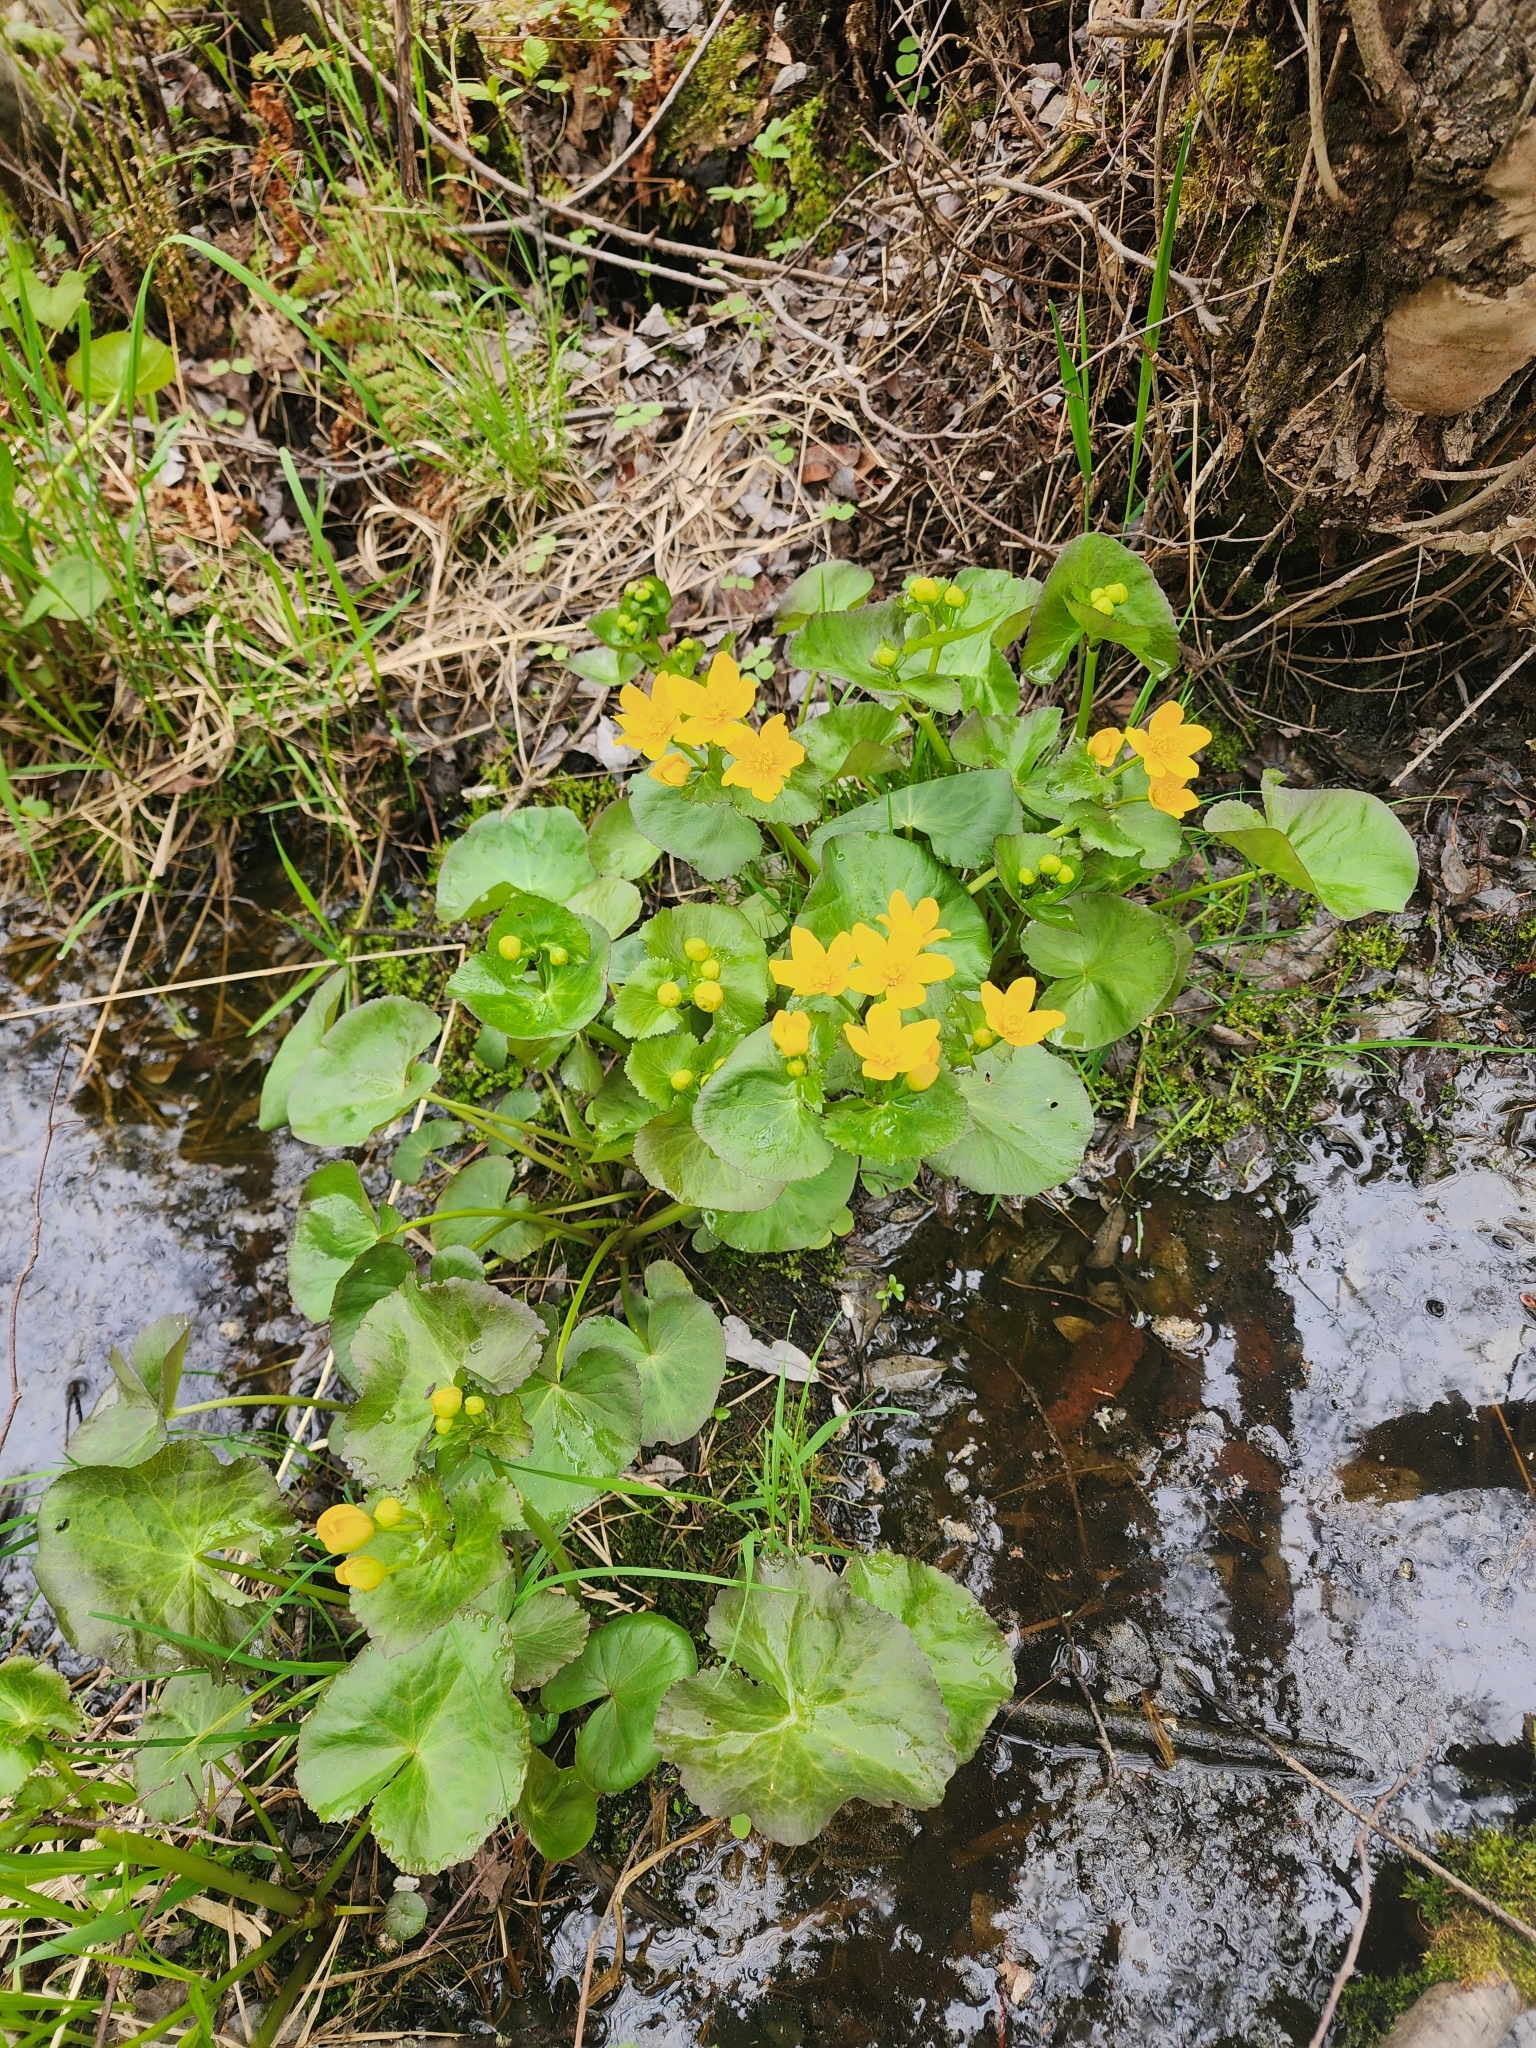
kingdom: Plantae
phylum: Tracheophyta
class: Magnoliopsida
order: Ranunculales
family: Ranunculaceae
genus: Caltha
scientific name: Caltha palustris
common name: Marsh marigold
